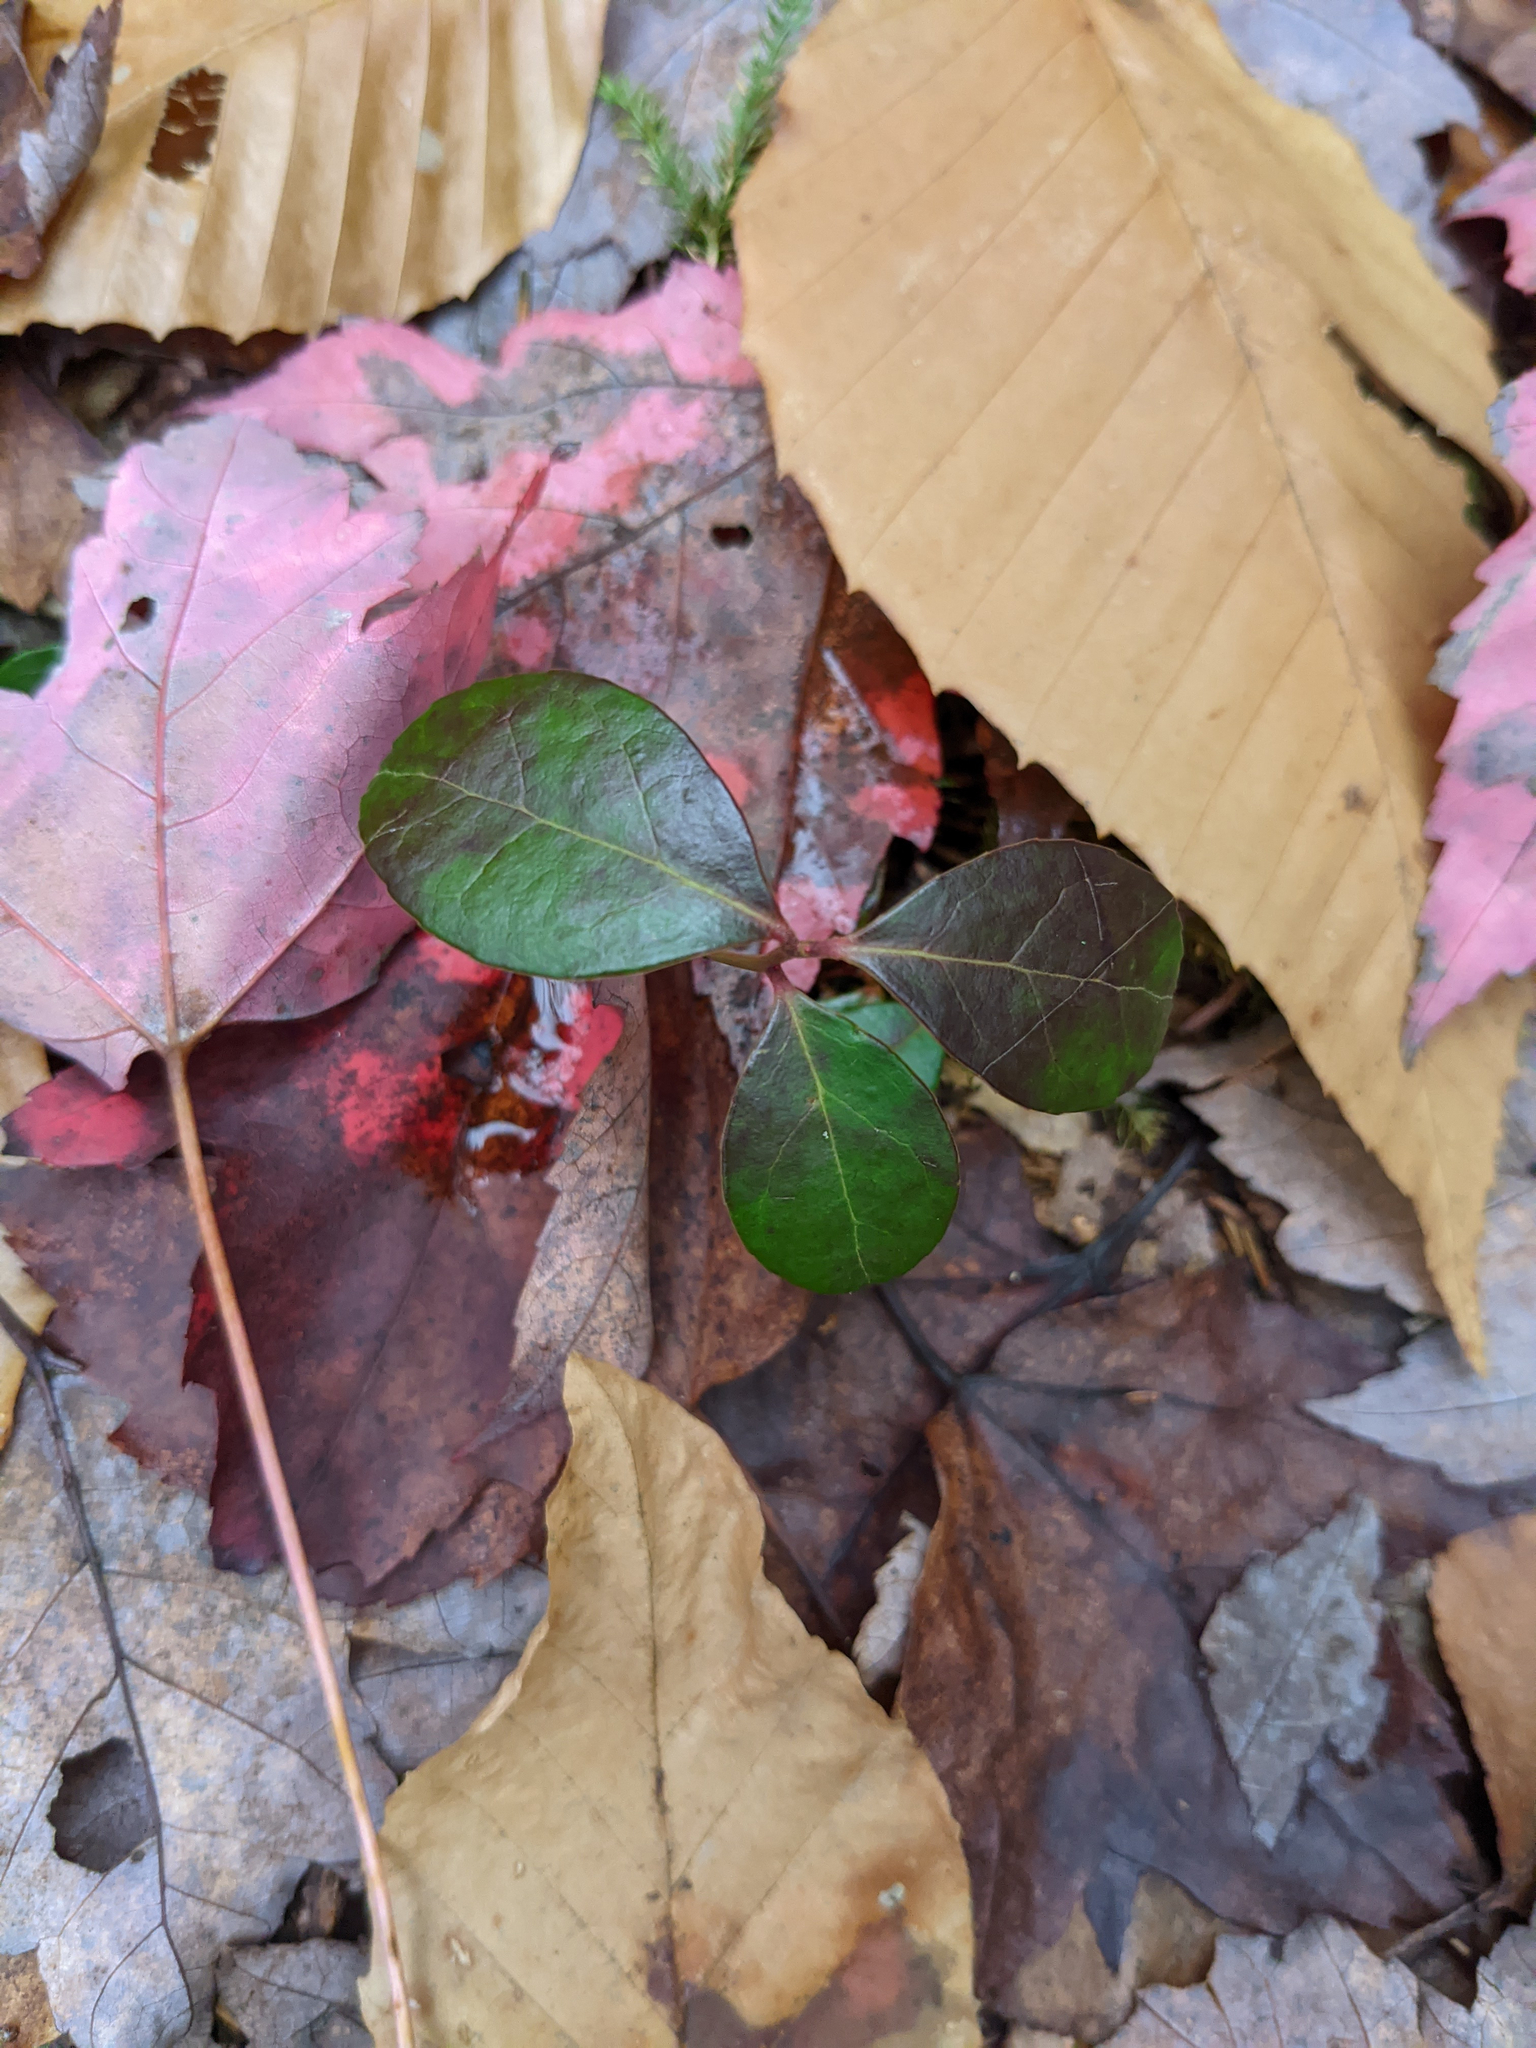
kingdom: Plantae
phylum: Tracheophyta
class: Magnoliopsida
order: Ericales
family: Ericaceae
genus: Gaultheria
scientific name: Gaultheria procumbens
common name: Checkerberry
